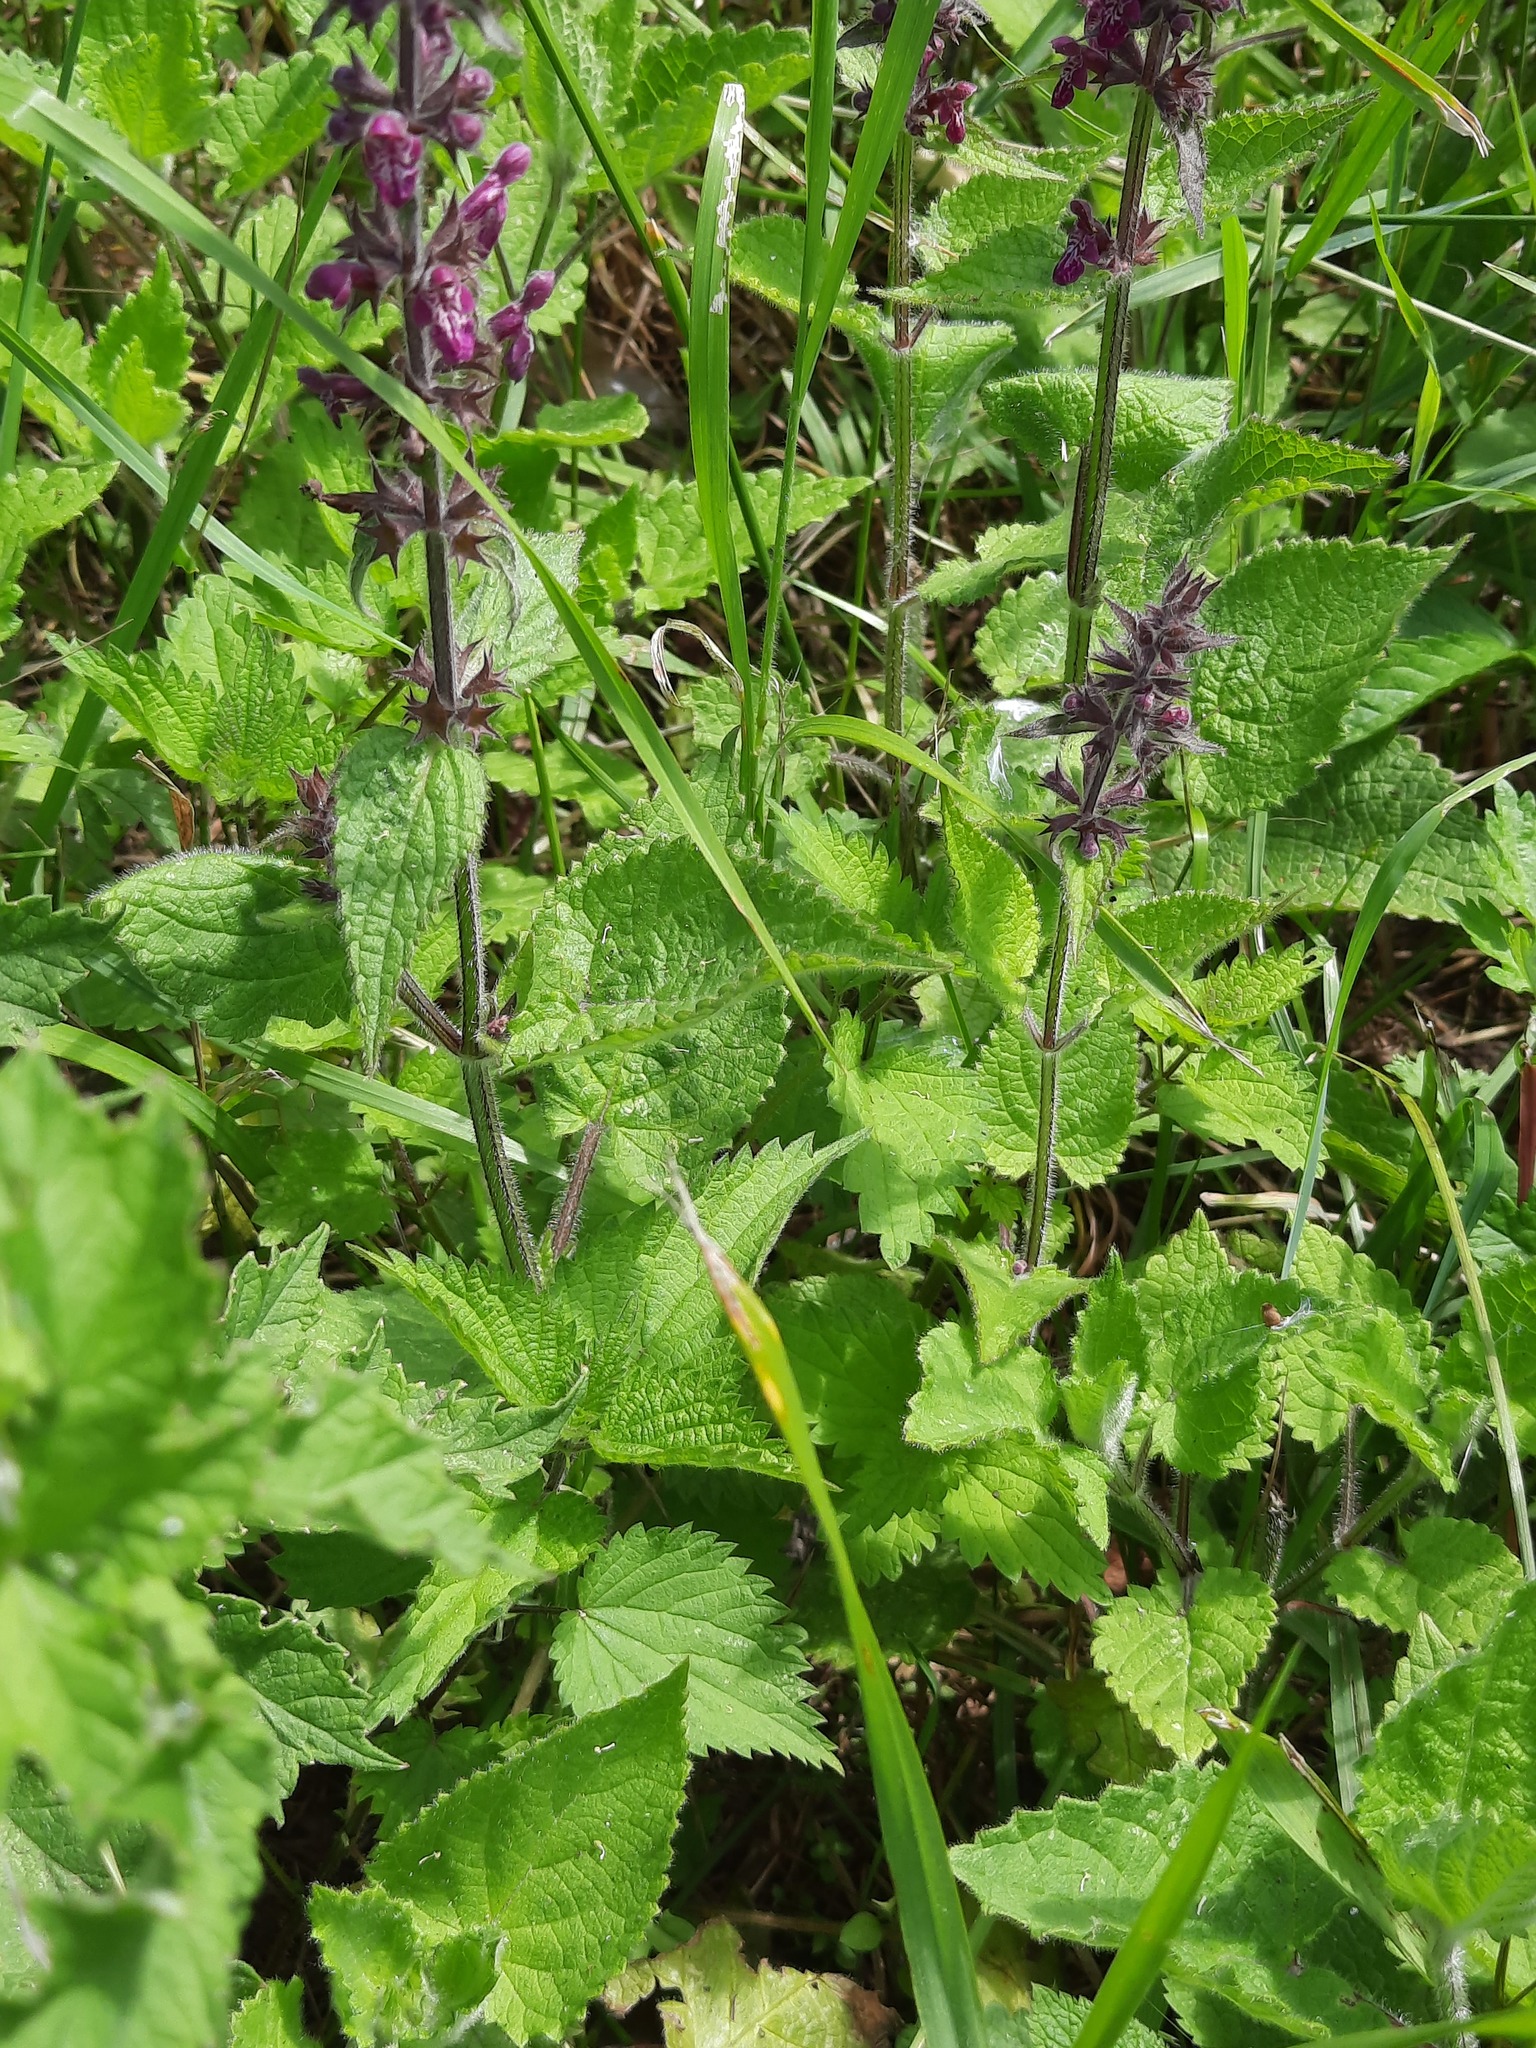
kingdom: Plantae
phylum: Tracheophyta
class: Magnoliopsida
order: Lamiales
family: Lamiaceae
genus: Stachys
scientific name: Stachys sylvatica
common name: Hedge woundwort
